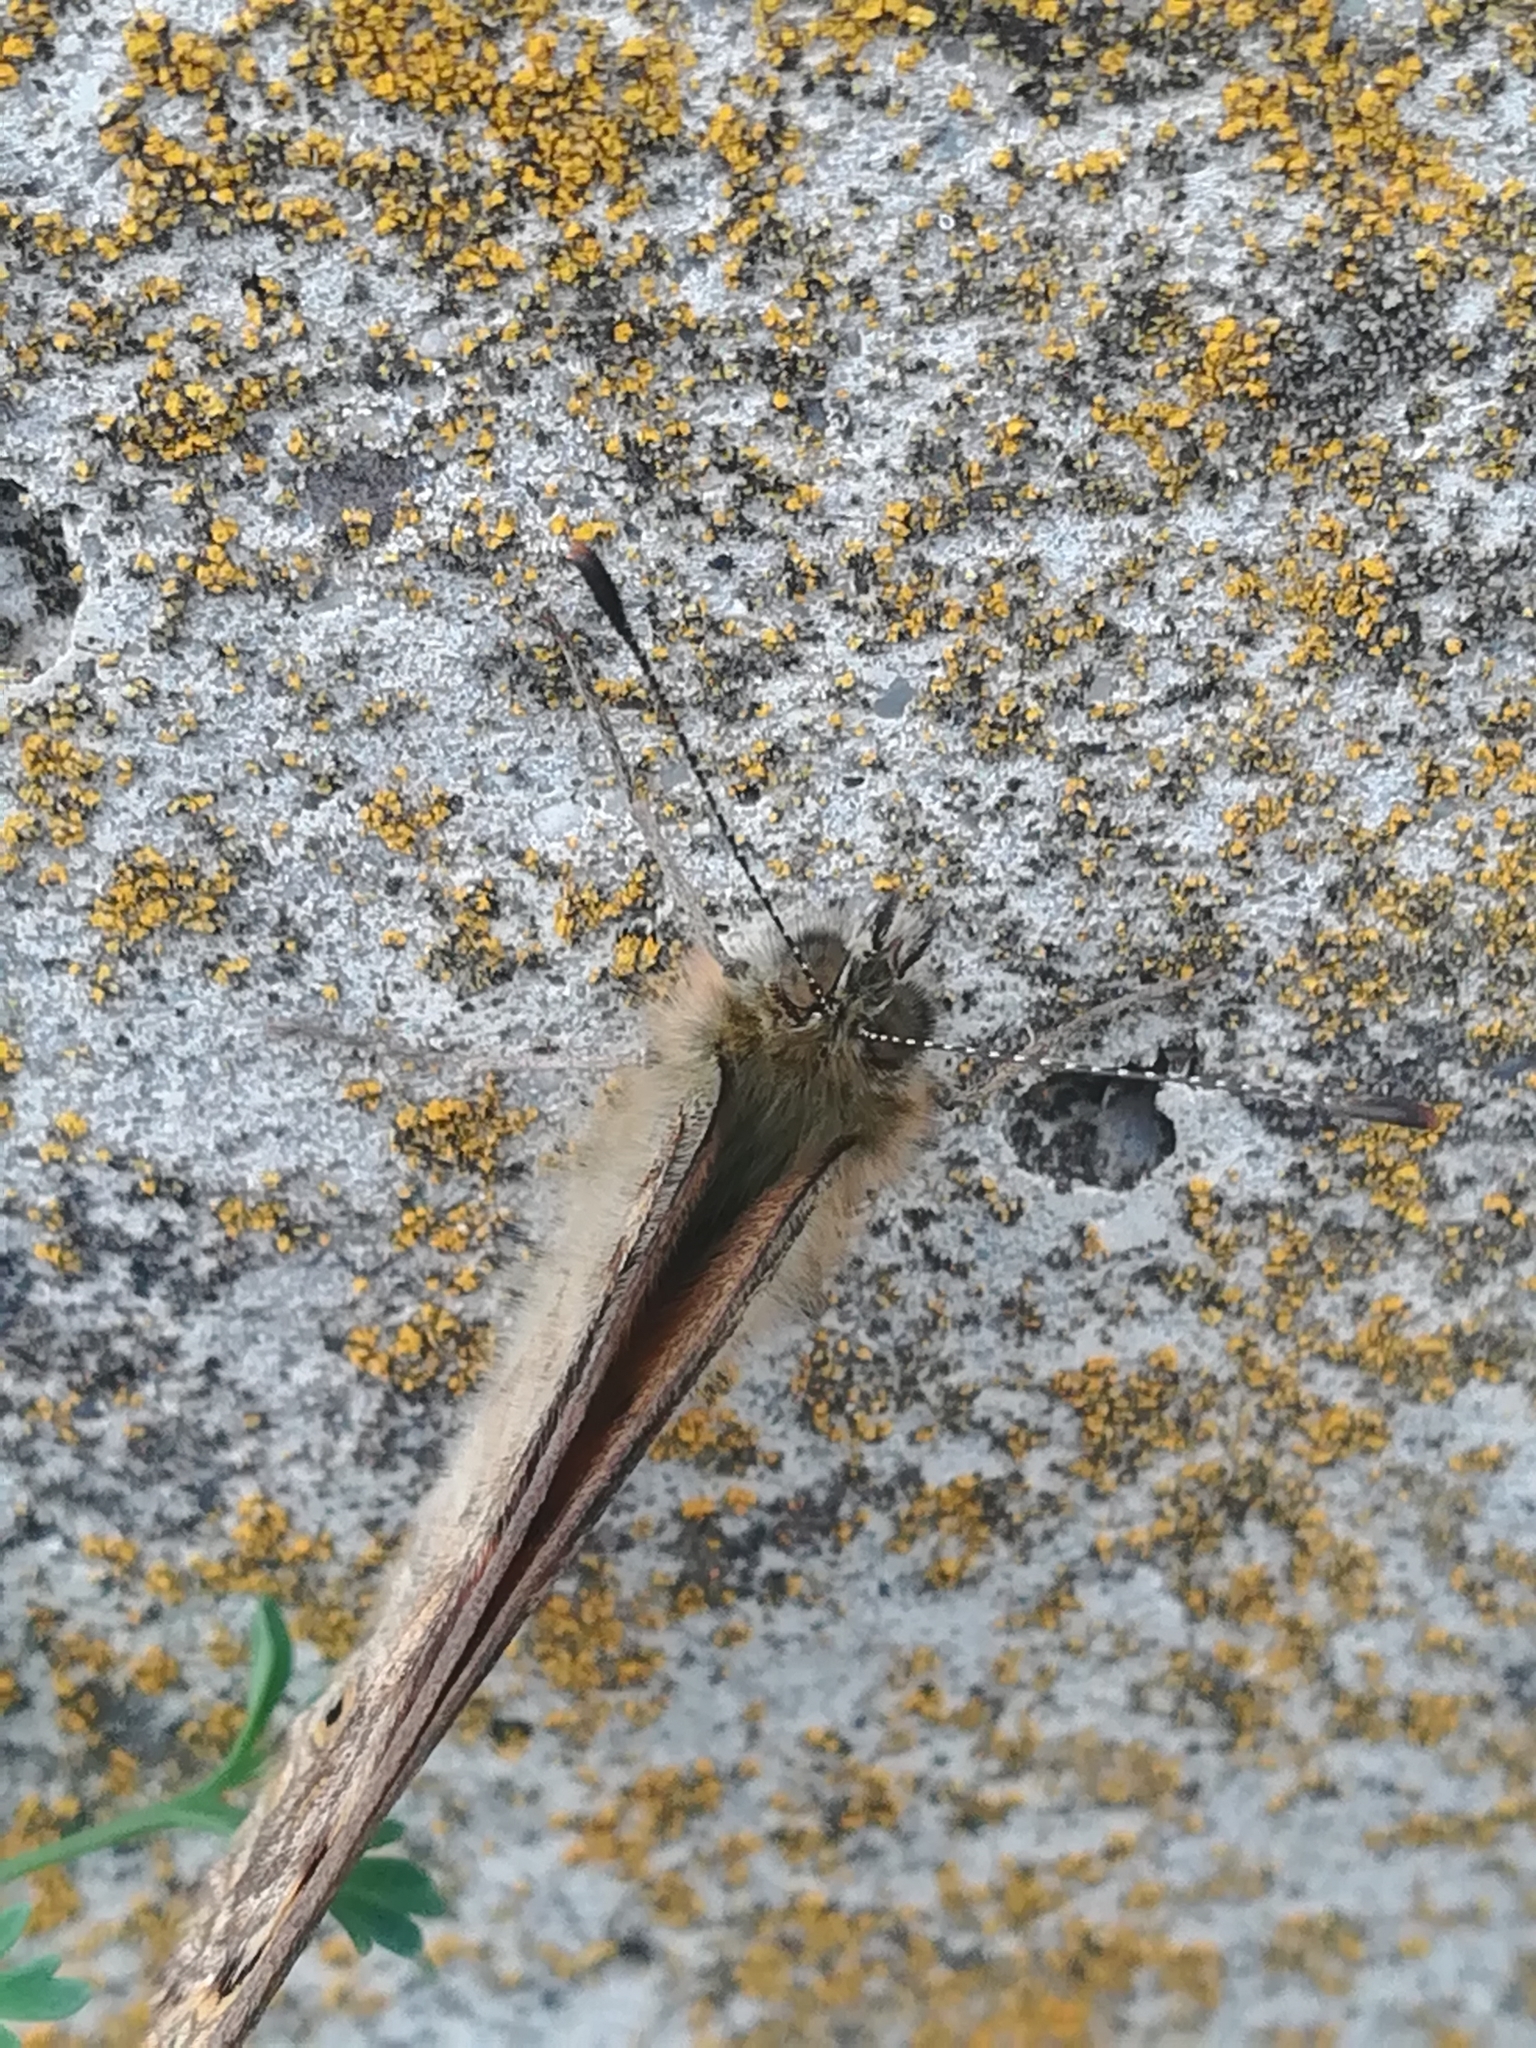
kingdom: Animalia
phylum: Arthropoda
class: Insecta
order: Lepidoptera
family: Nymphalidae
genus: Pararge
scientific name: Pararge Lasiommata megera
